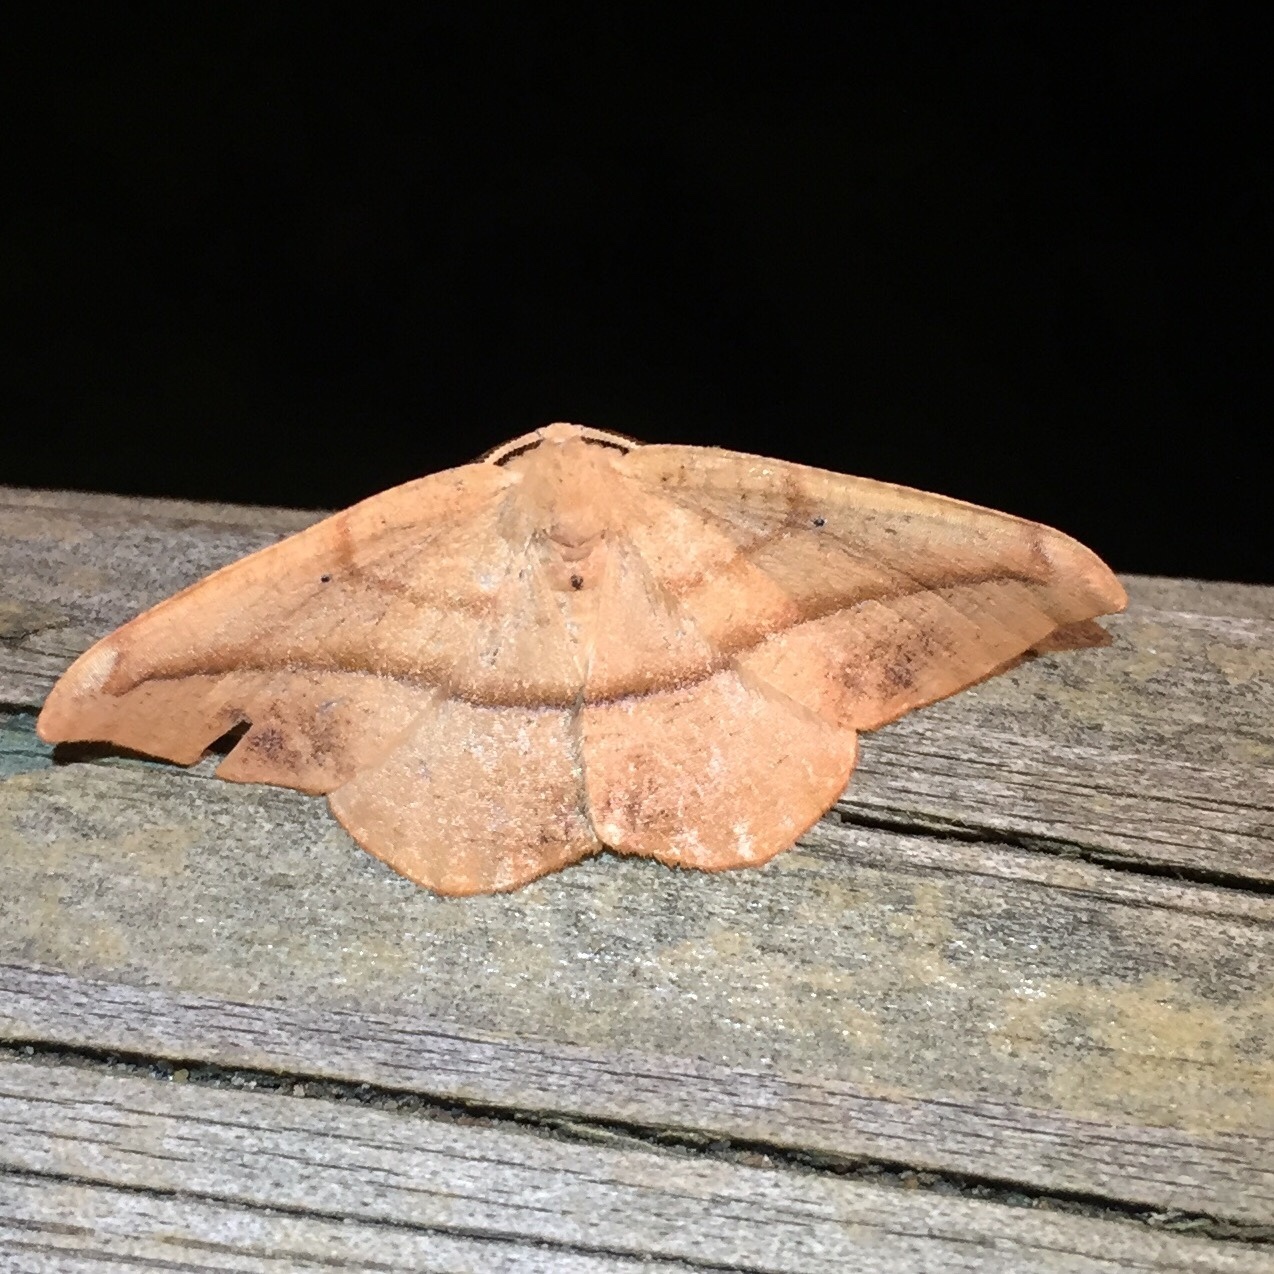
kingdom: Animalia
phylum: Arthropoda
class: Insecta
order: Lepidoptera
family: Geometridae
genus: Patalene
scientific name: Patalene olyzonaria
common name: Juniper geometer moth
